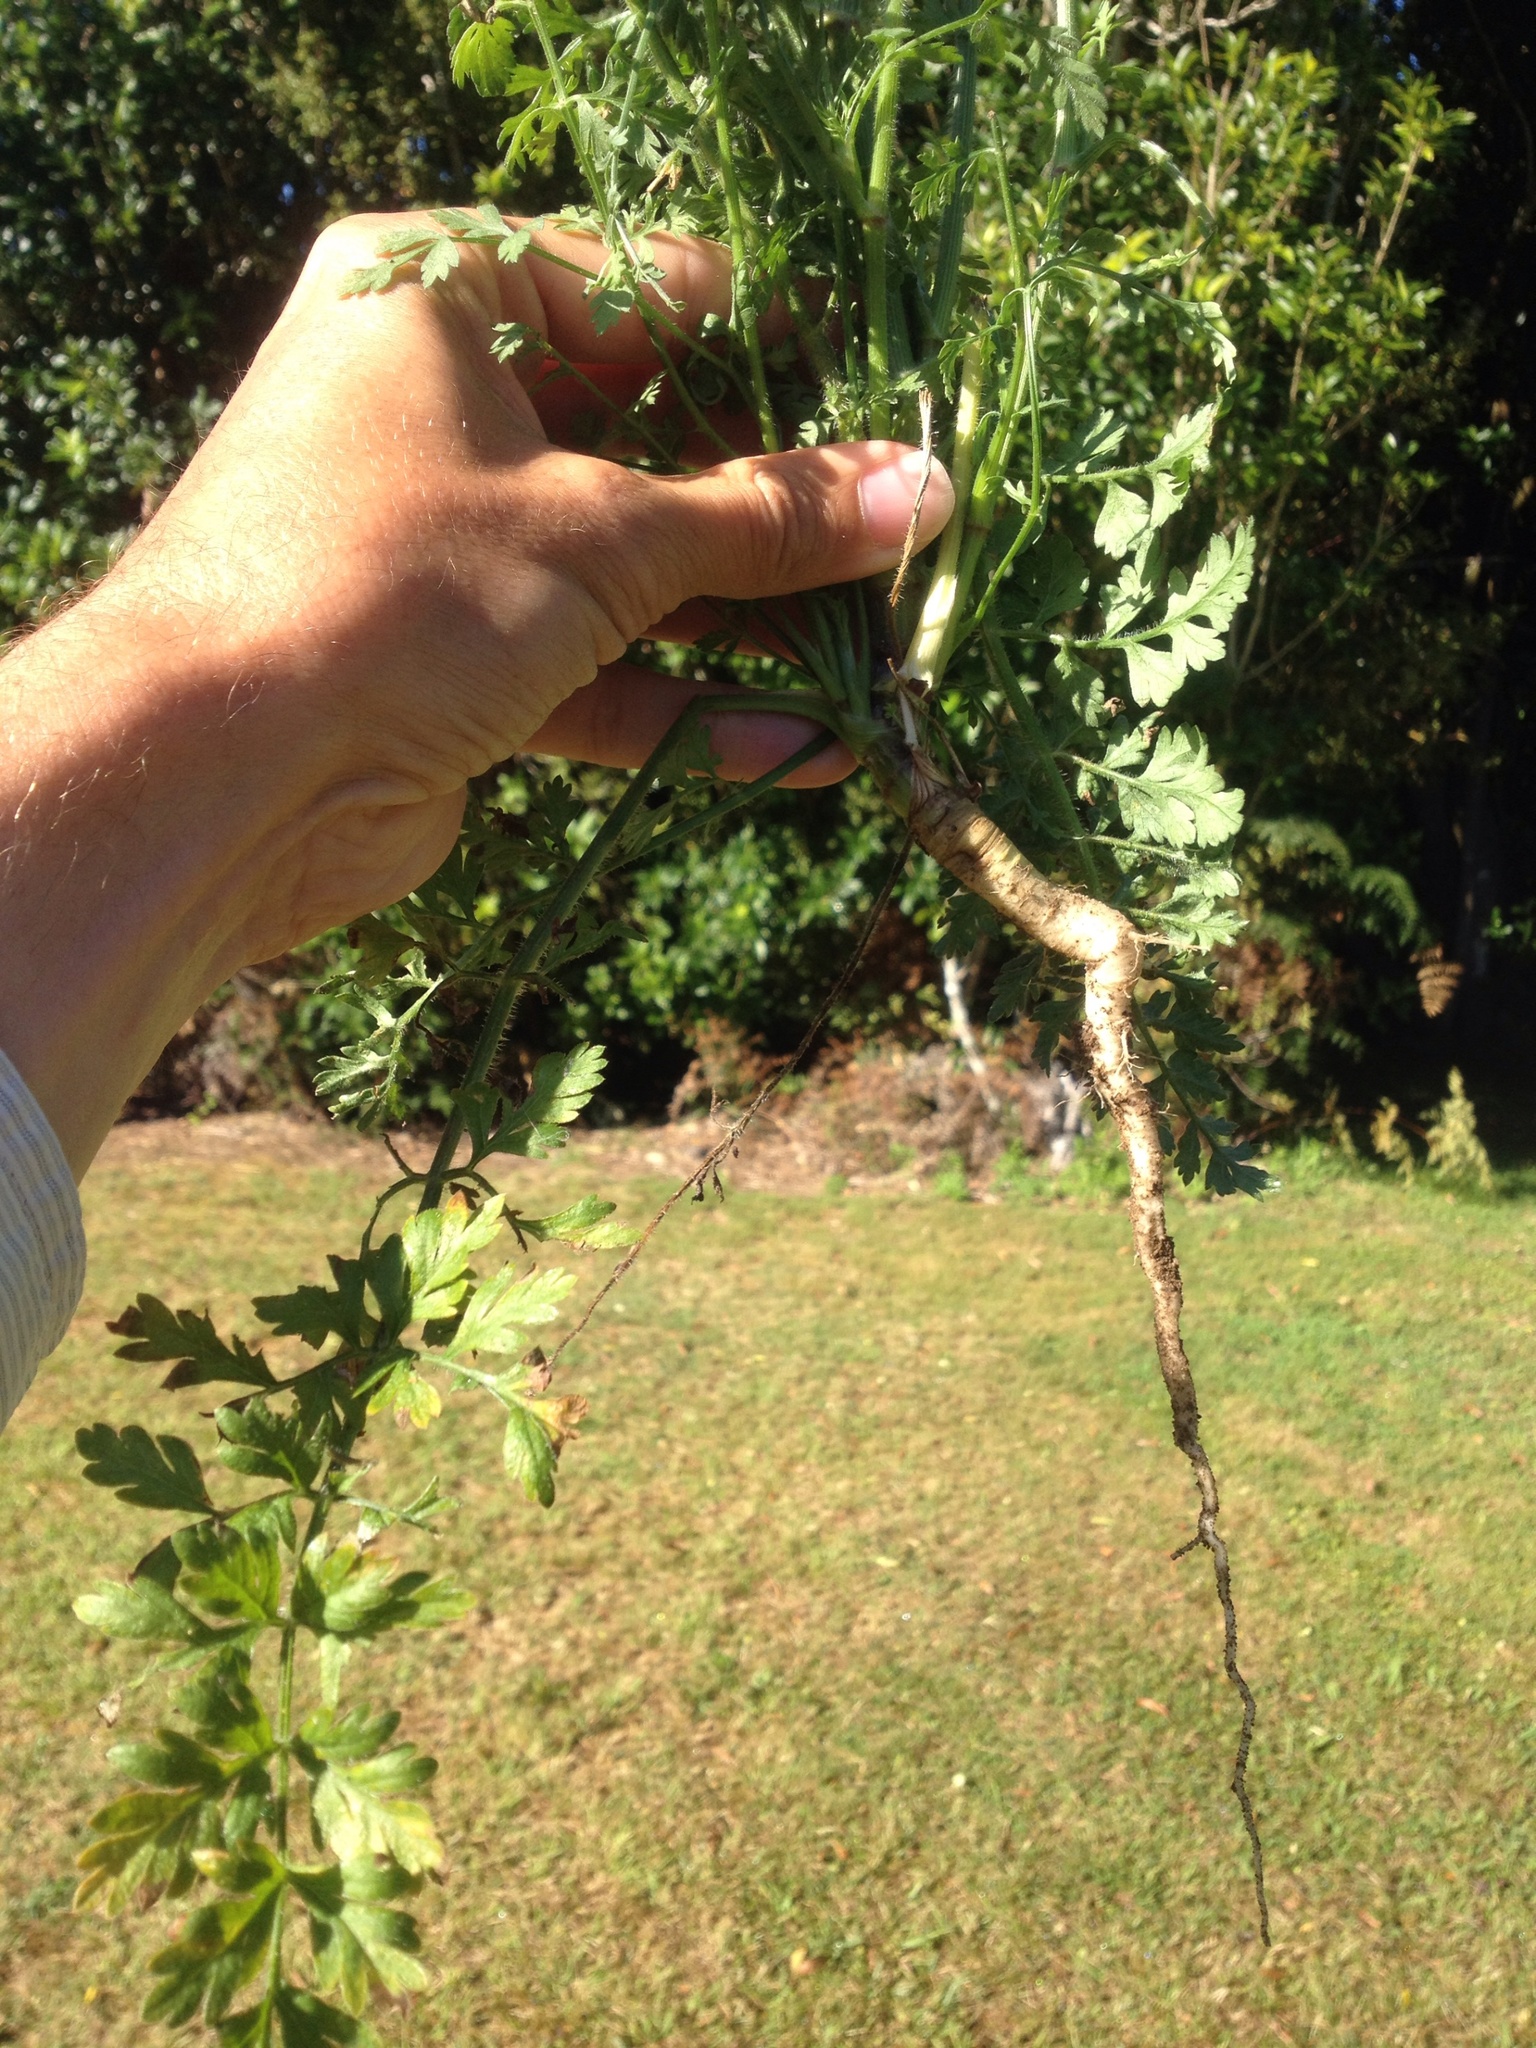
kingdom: Plantae
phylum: Tracheophyta
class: Magnoliopsida
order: Apiales
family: Apiaceae
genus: Daucus
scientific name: Daucus carota
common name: Wild carrot
